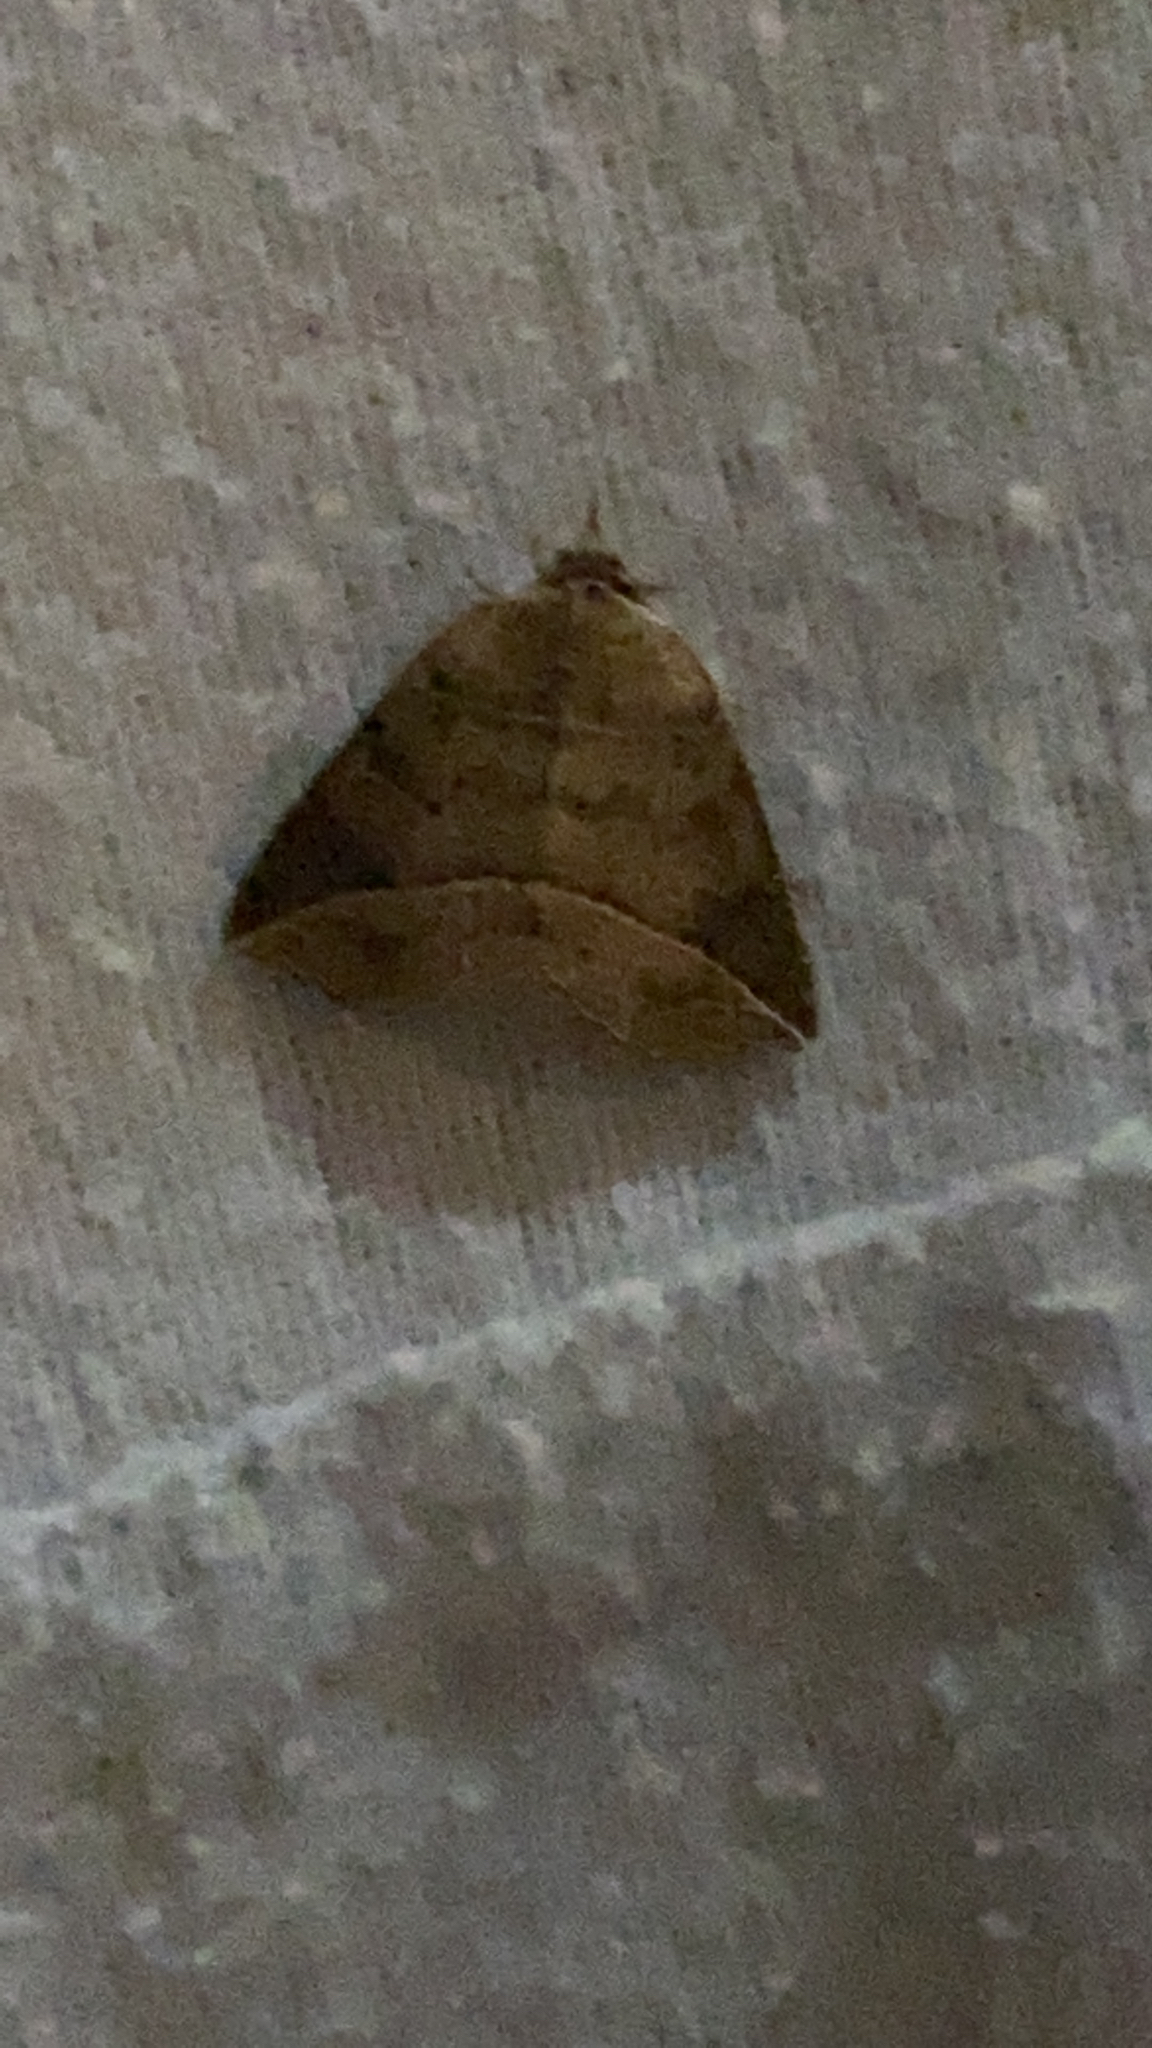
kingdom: Animalia
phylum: Arthropoda
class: Insecta
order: Lepidoptera
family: Erebidae
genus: Isogona
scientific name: Isogona tenuis
